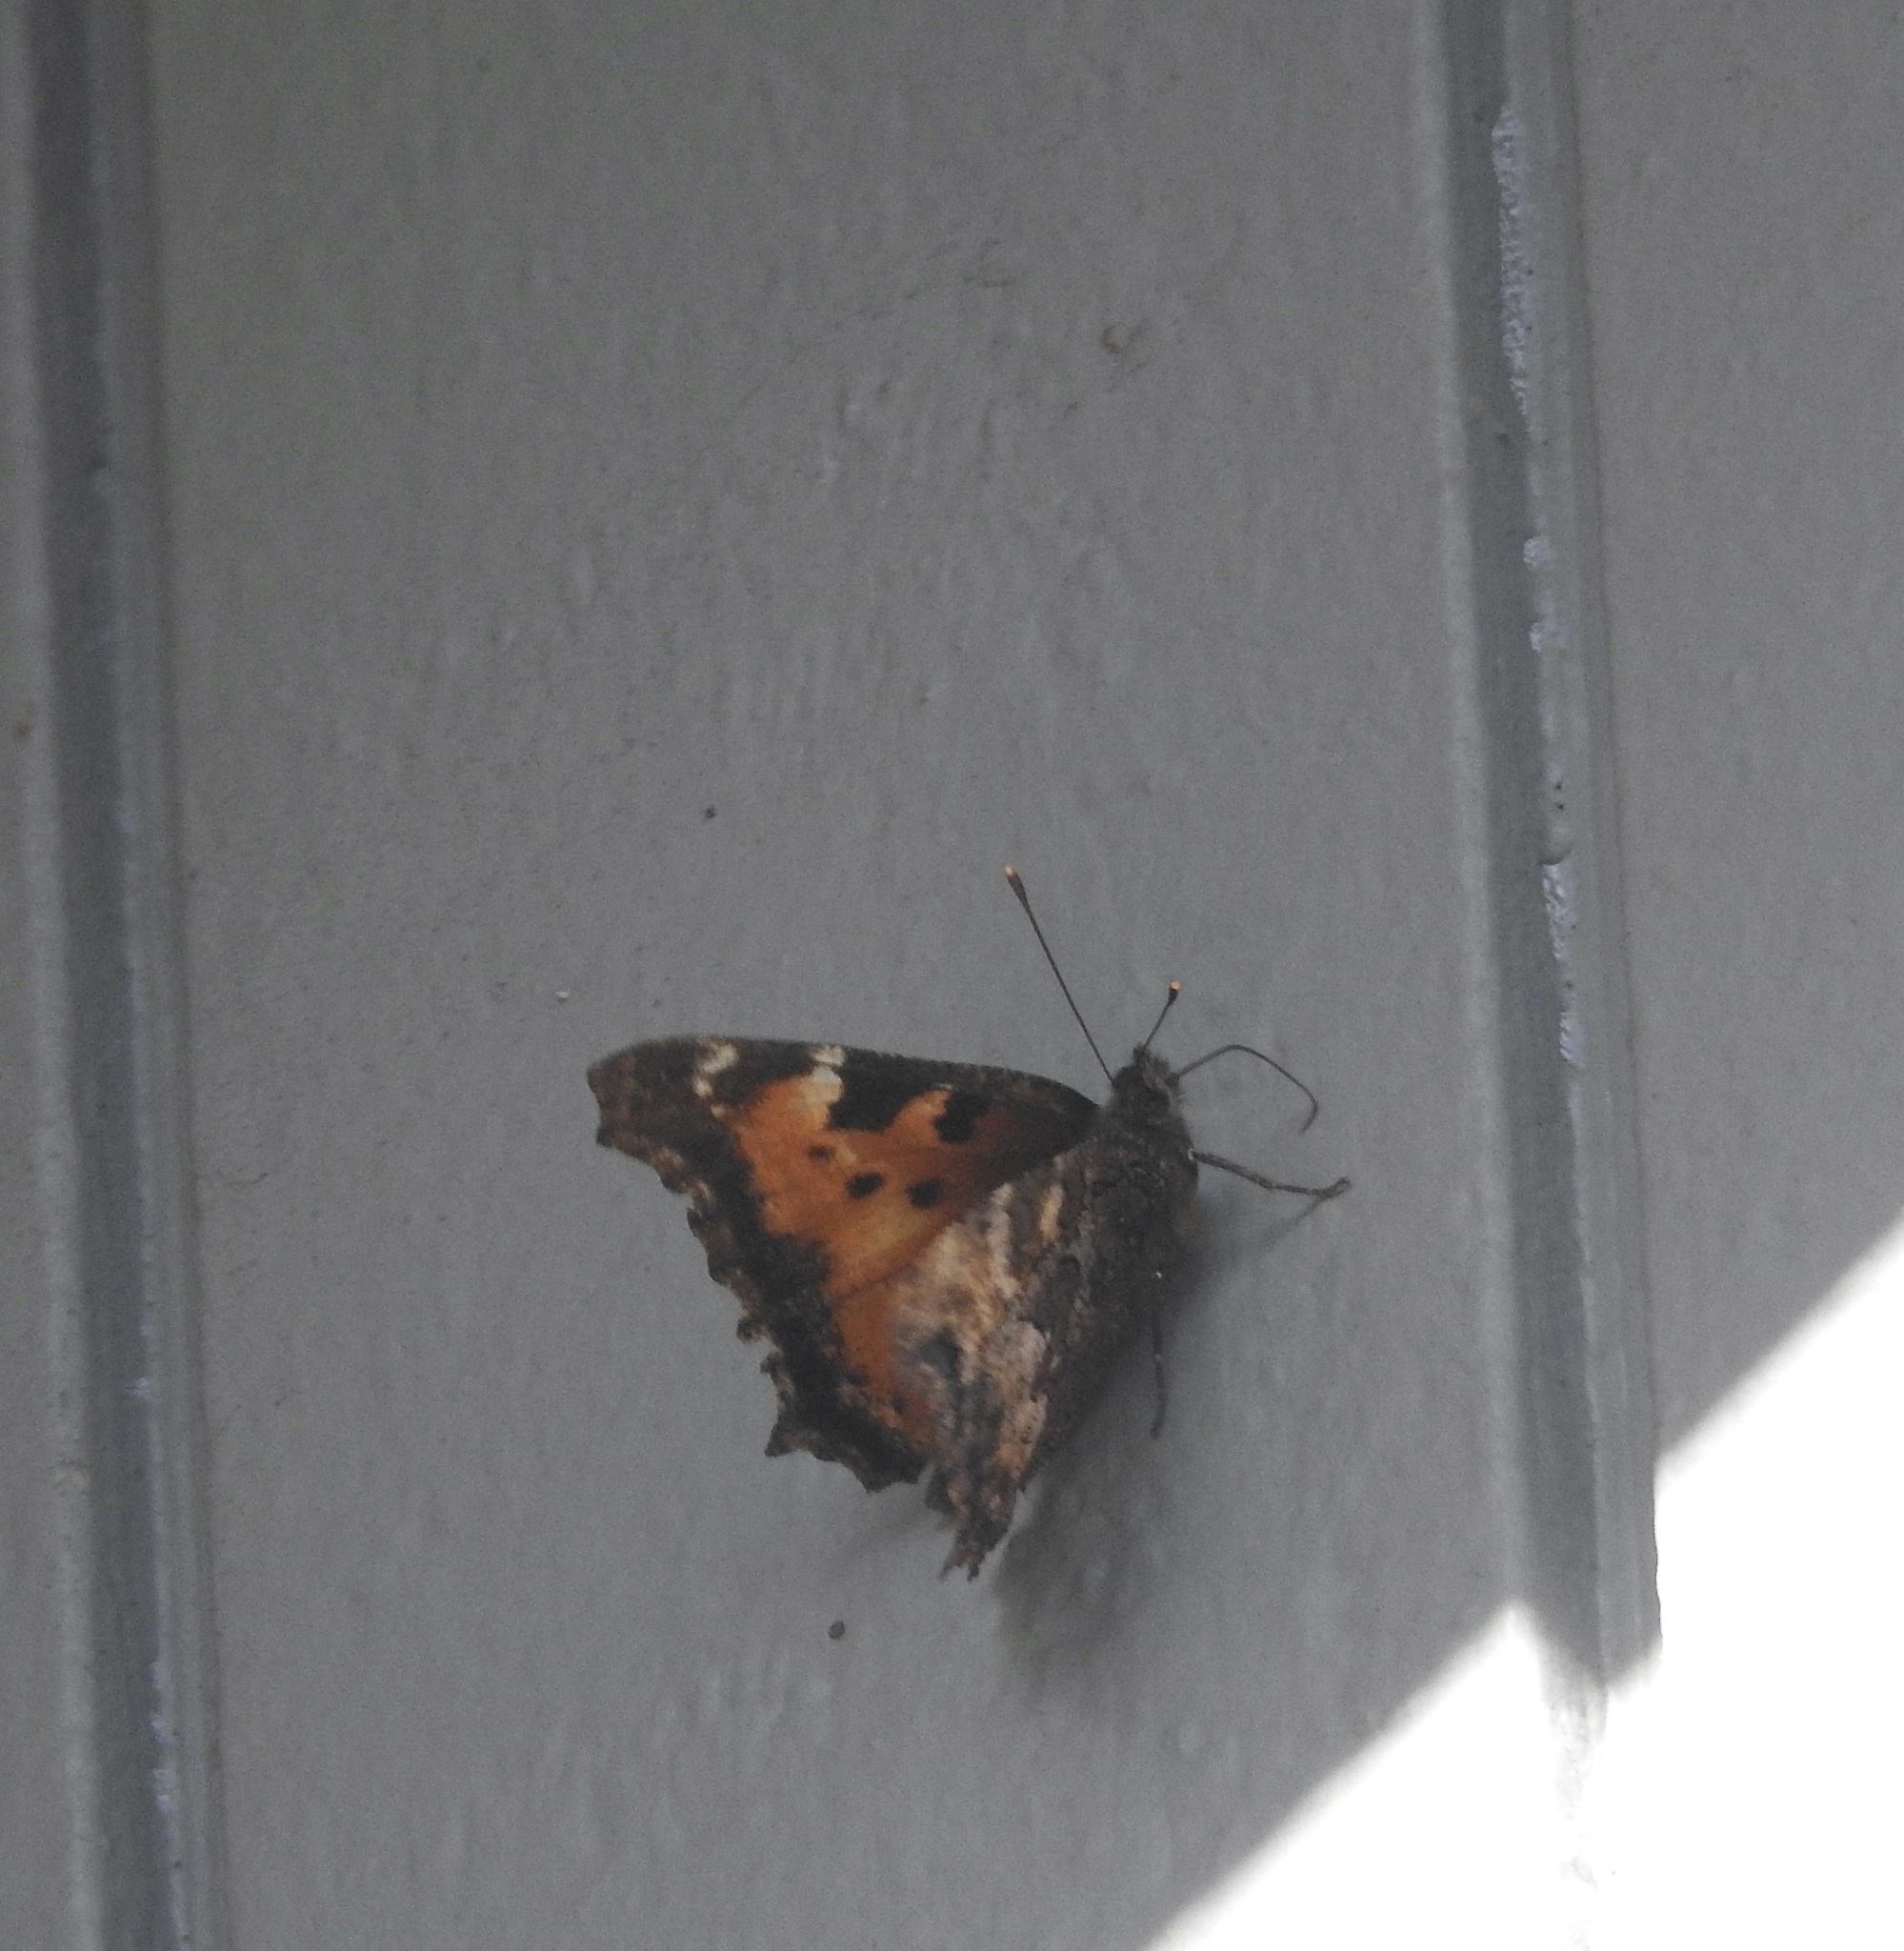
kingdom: Animalia
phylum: Arthropoda
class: Insecta
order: Lepidoptera
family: Nymphalidae
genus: Nymphalis
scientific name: Nymphalis californica
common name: California tortoiseshell
